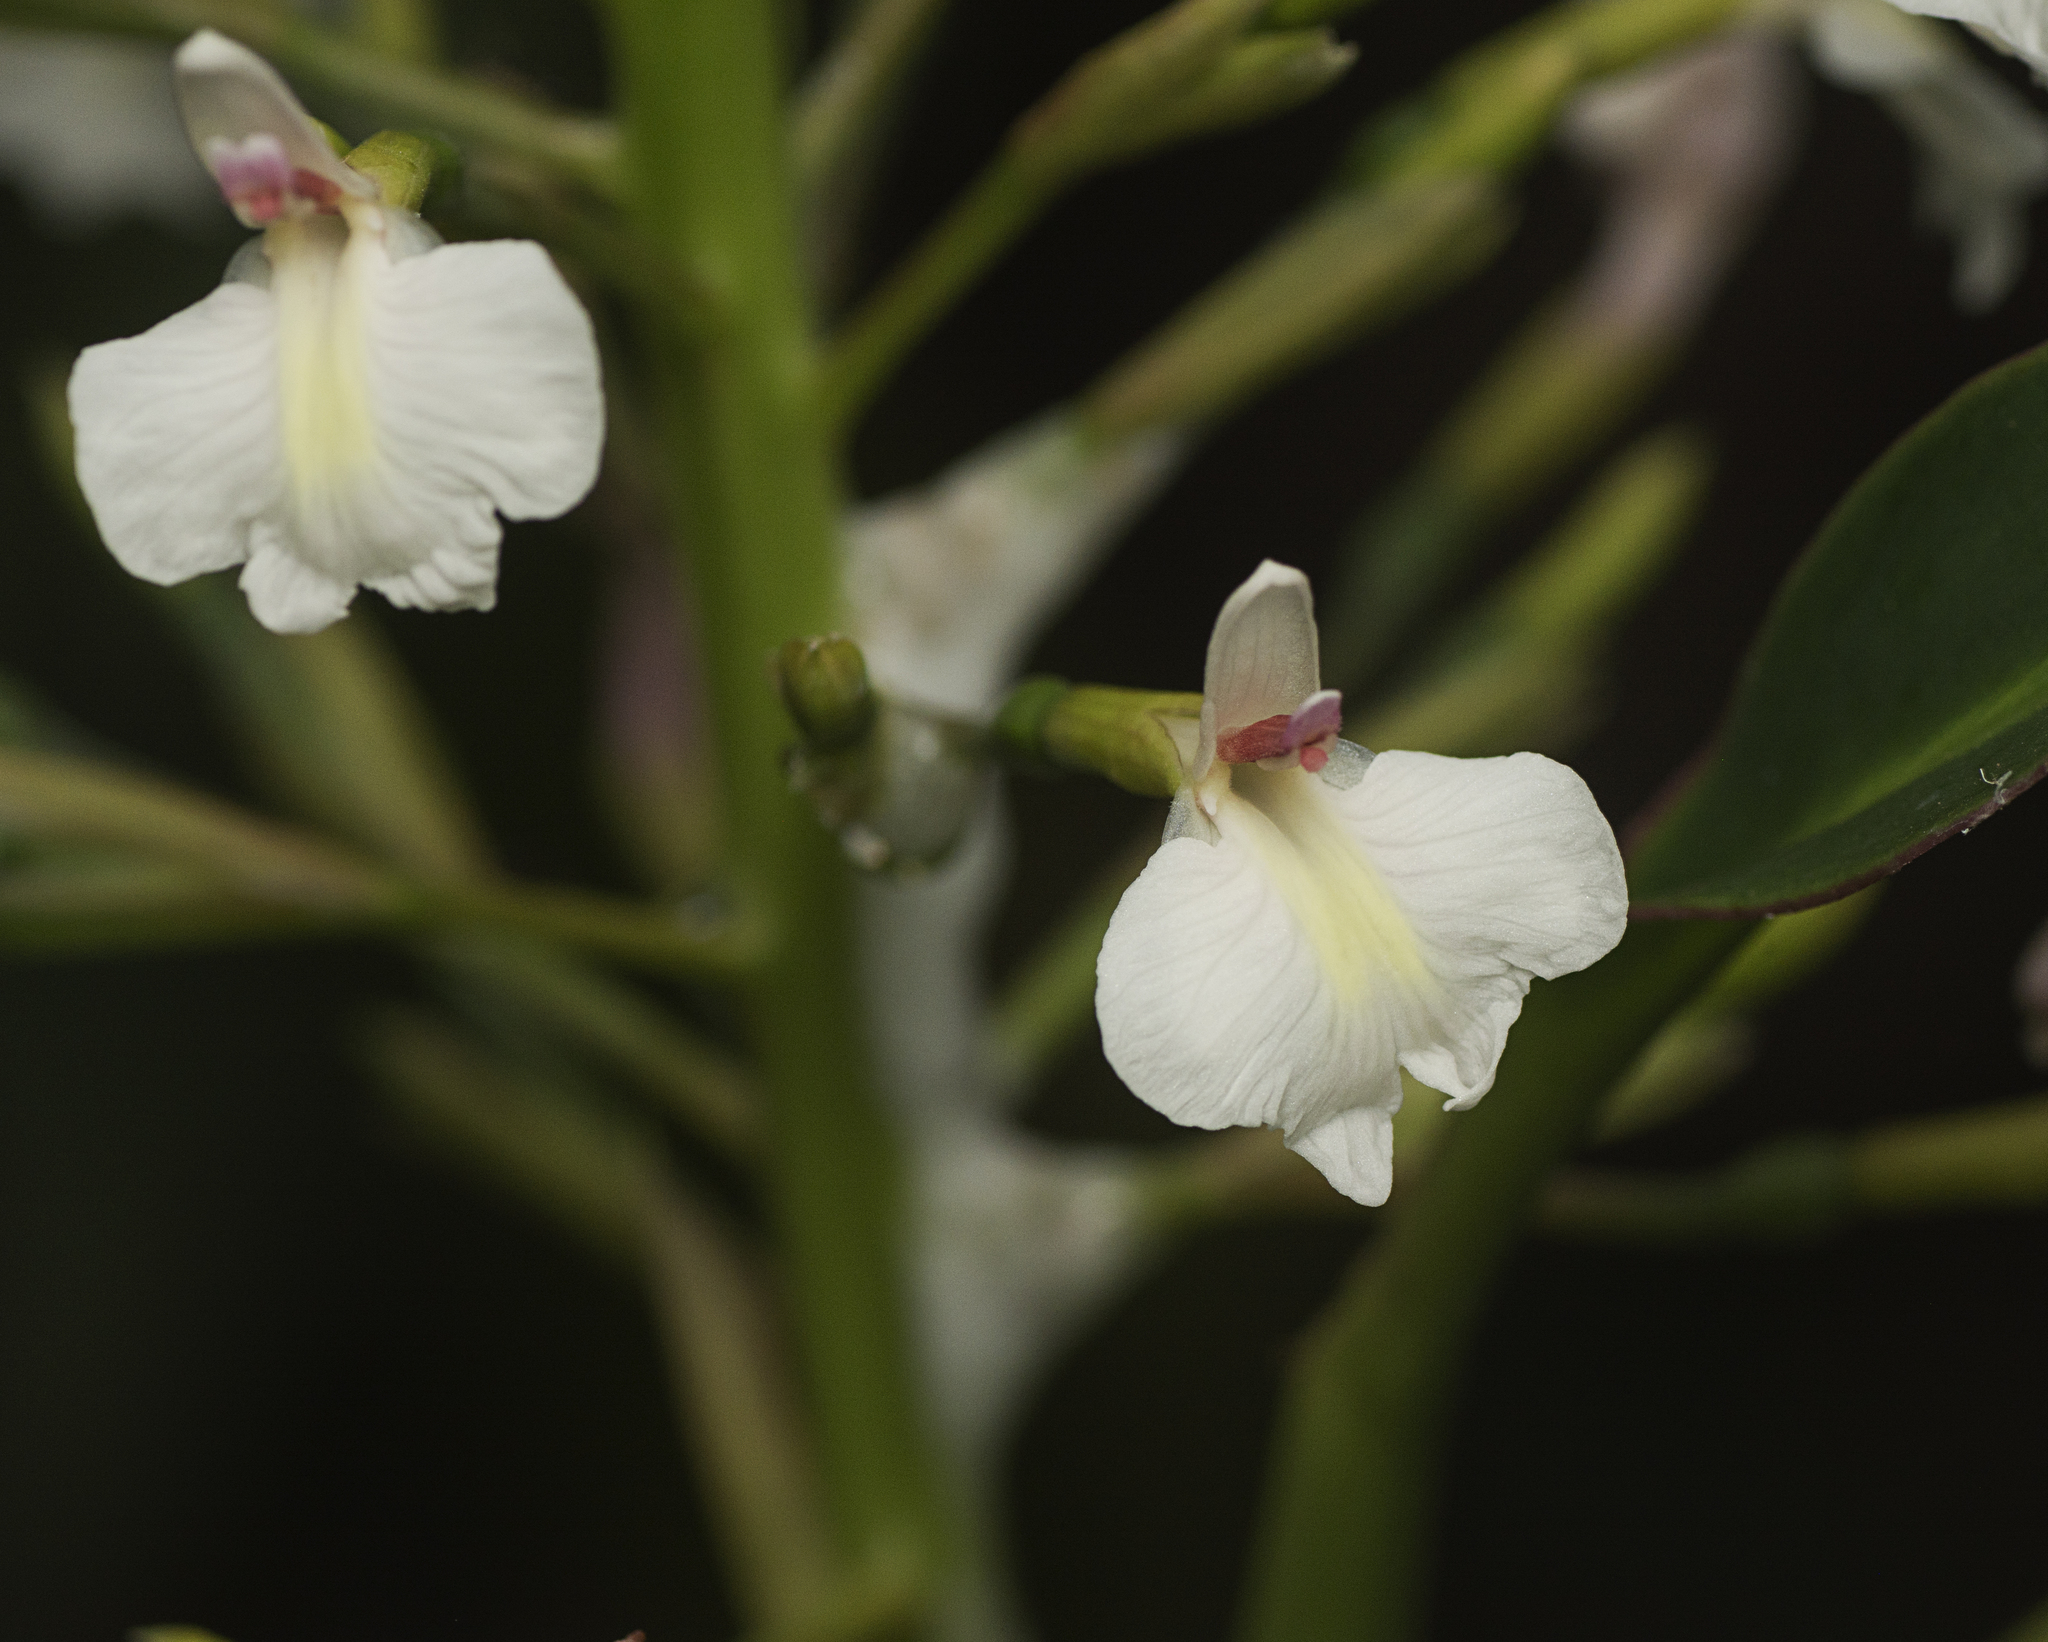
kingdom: Plantae
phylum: Tracheophyta
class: Liliopsida
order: Zingiberales
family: Zingiberaceae
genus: Alpinia
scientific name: Alpinia caerulea
